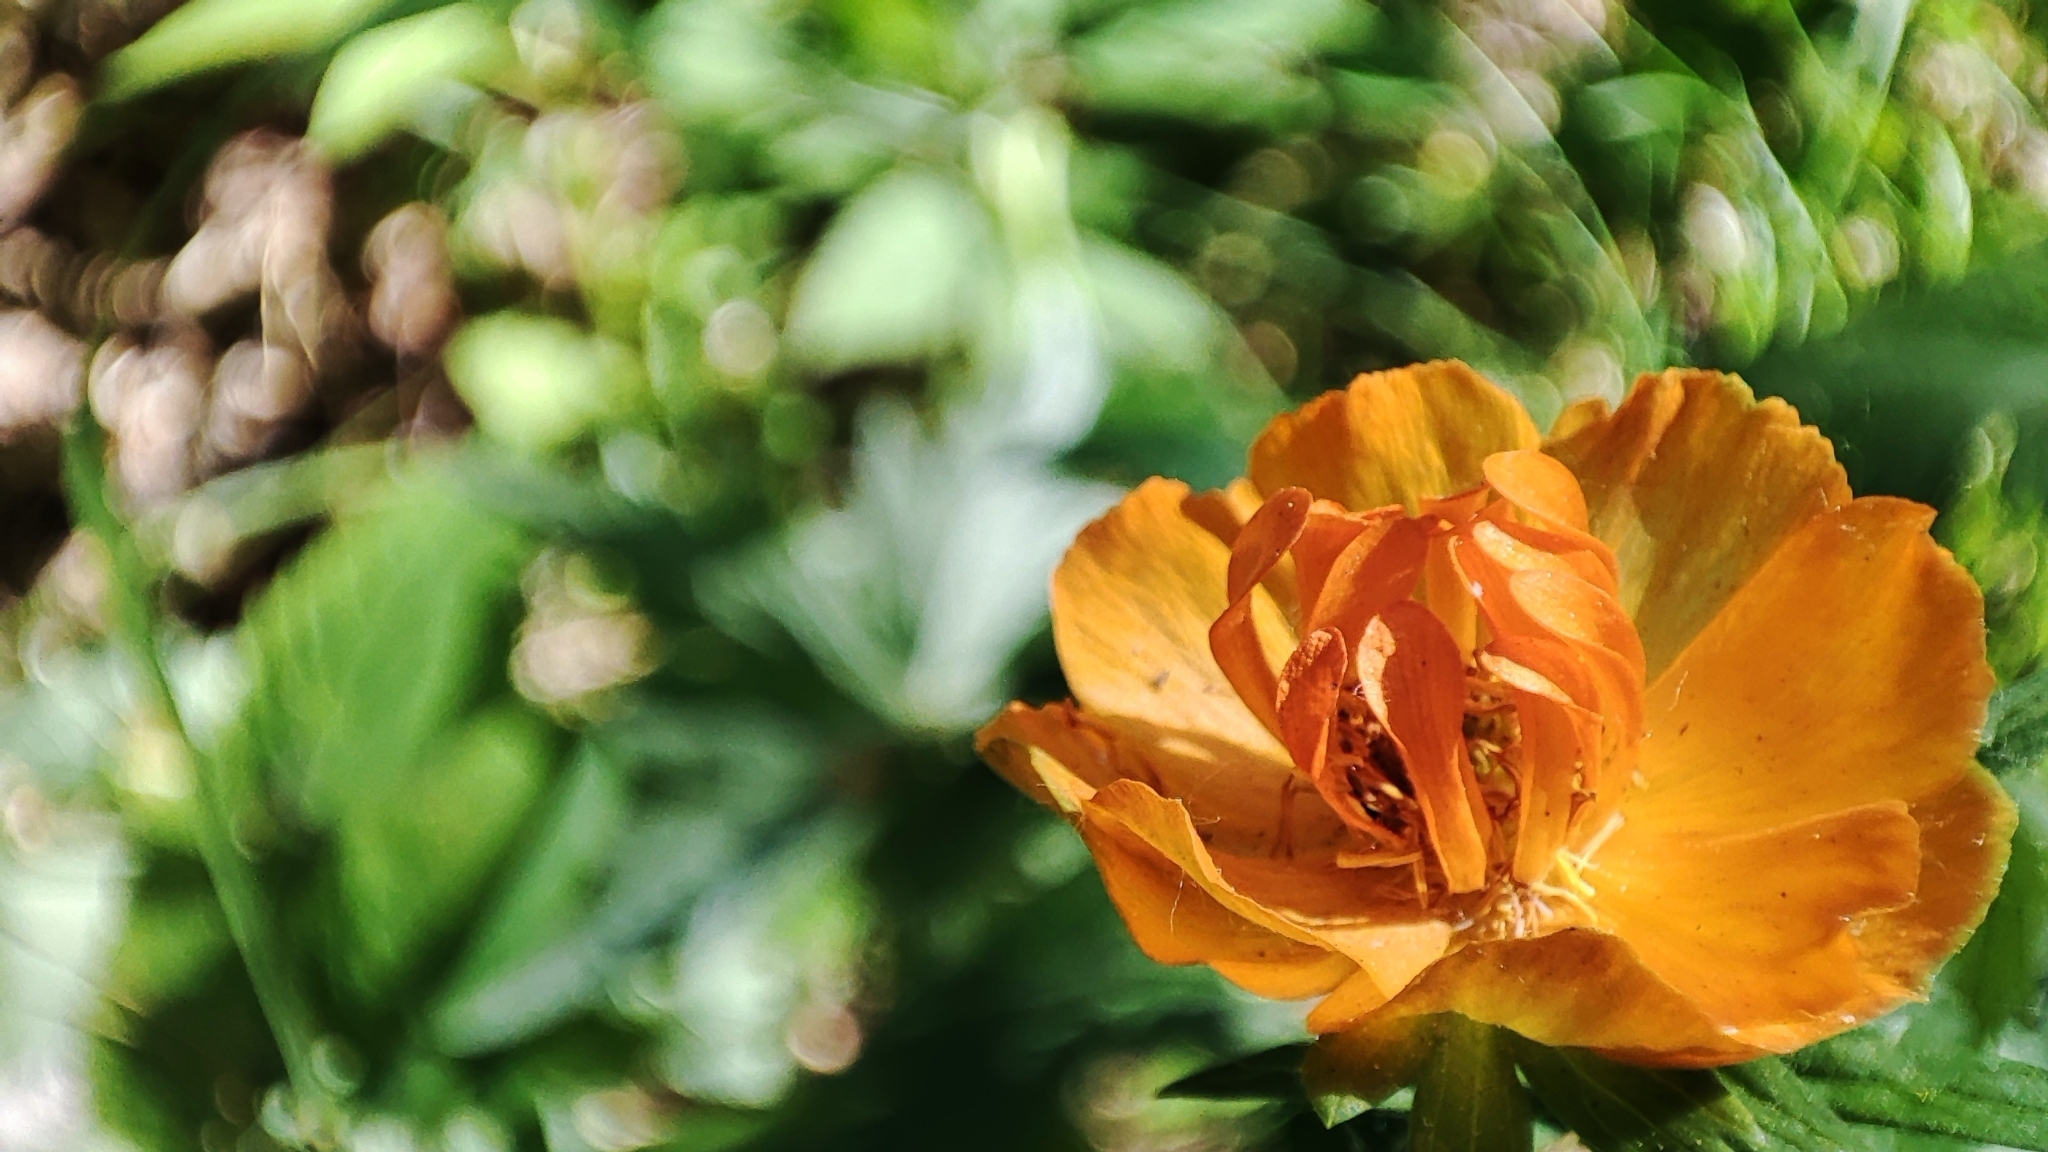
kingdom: Plantae
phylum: Tracheophyta
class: Magnoliopsida
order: Ranunculales
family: Ranunculaceae
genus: Trollius
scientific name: Trollius asiaticus
